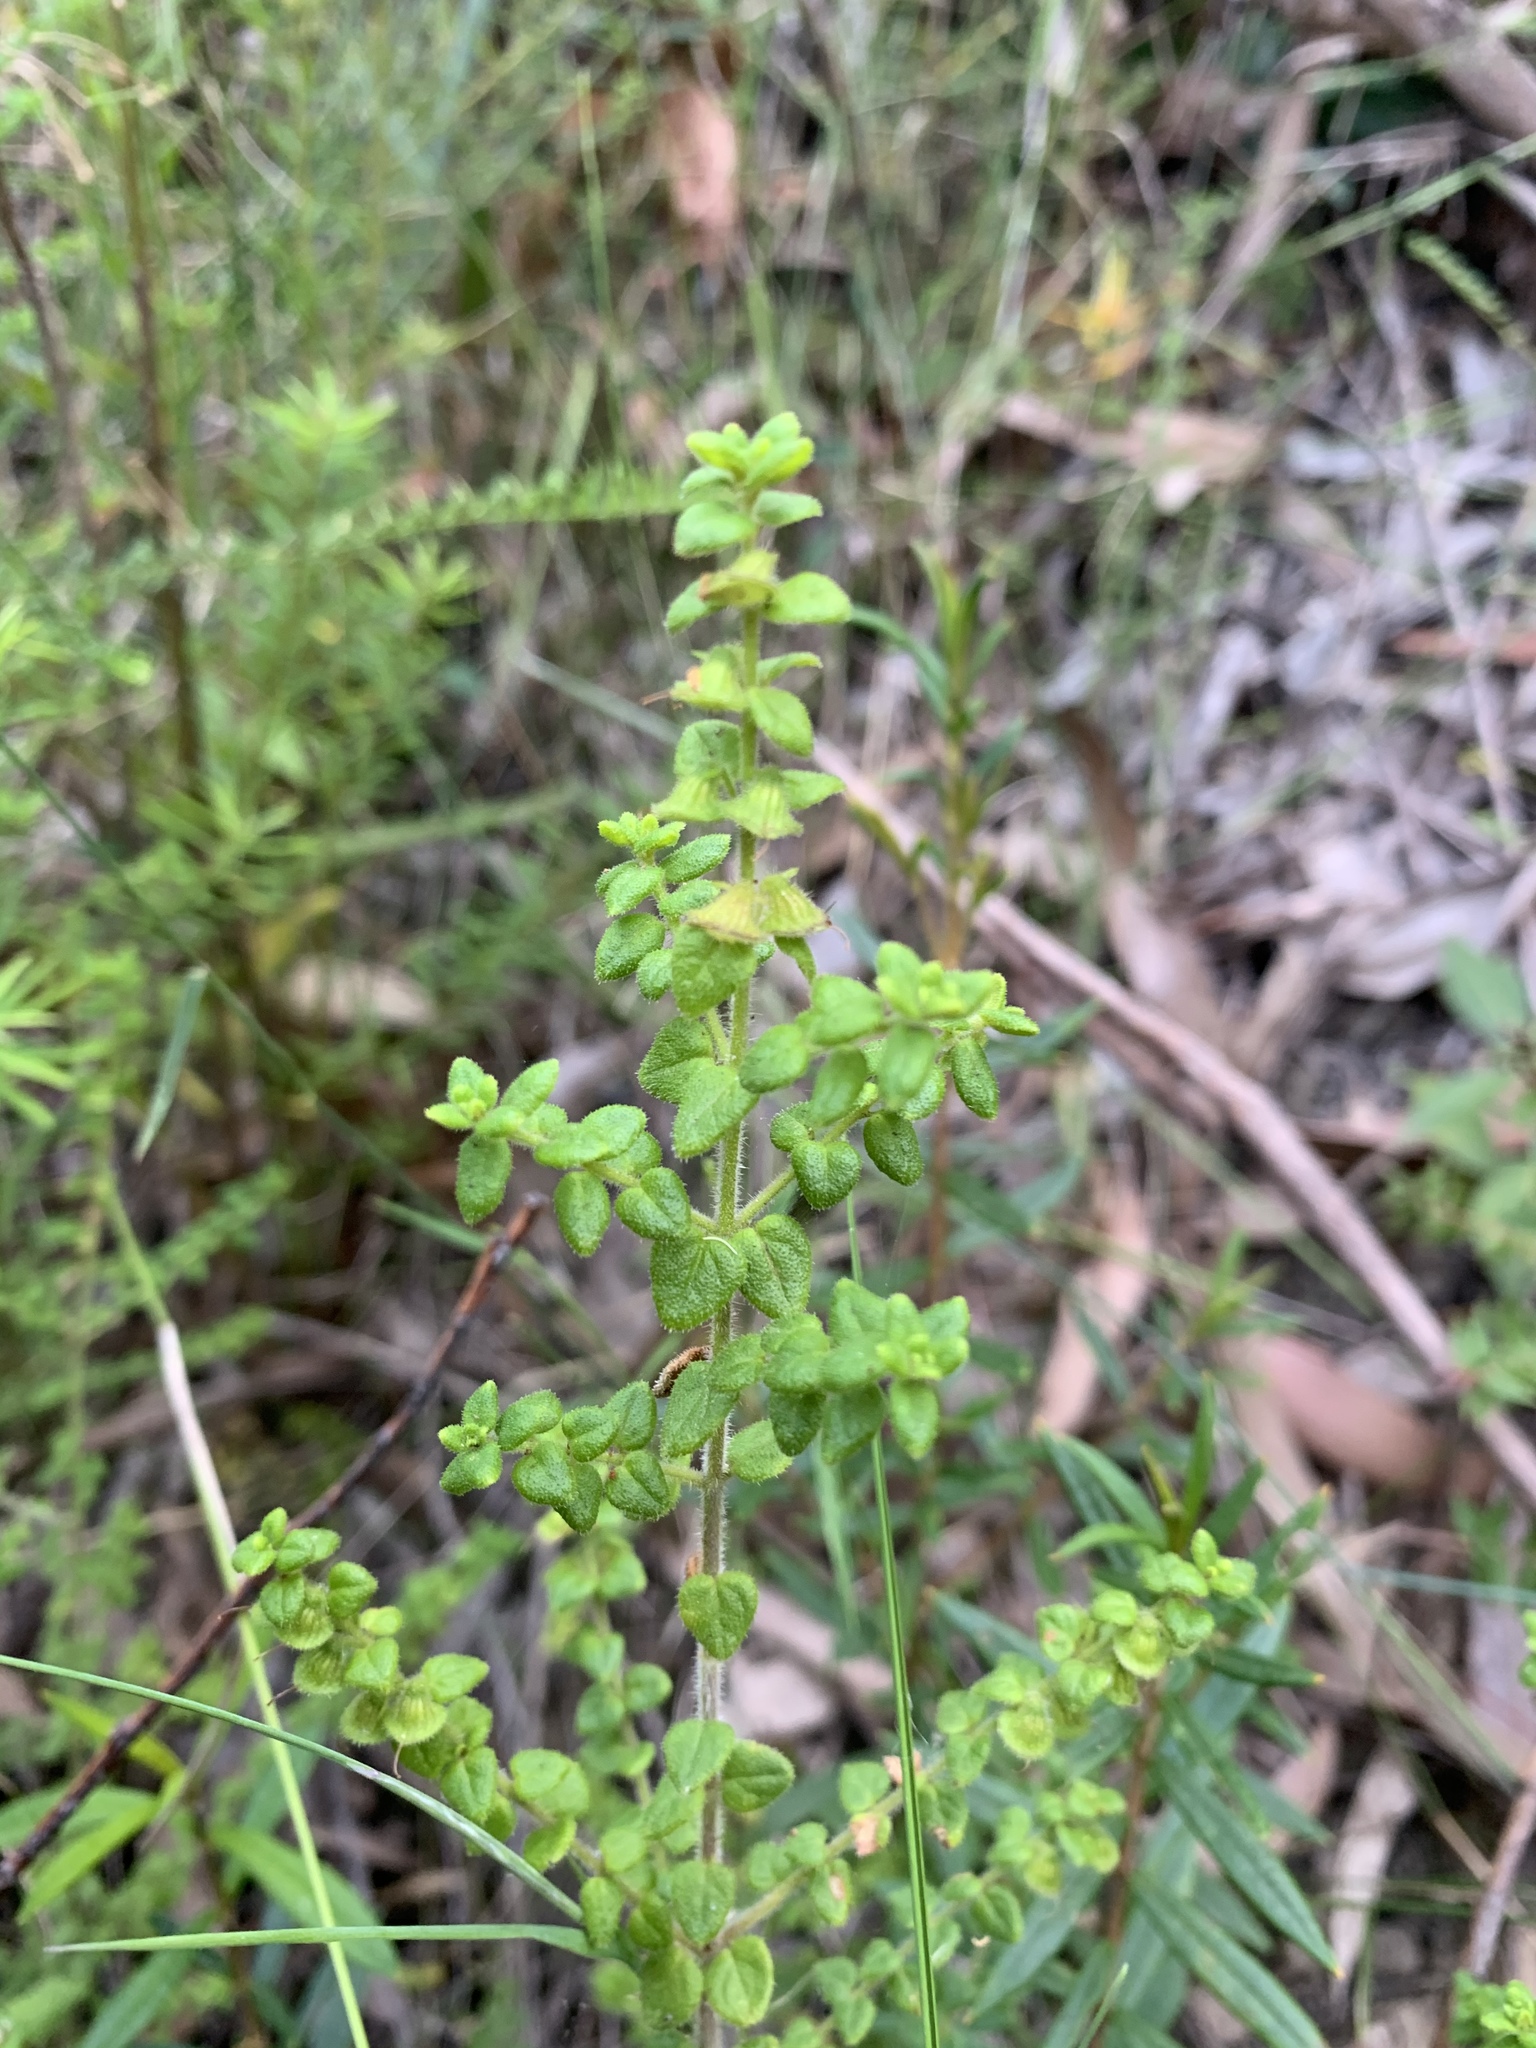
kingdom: Plantae
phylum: Tracheophyta
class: Magnoliopsida
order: Lamiales
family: Lamiaceae
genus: Prostanthera
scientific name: Prostanthera rhombea
